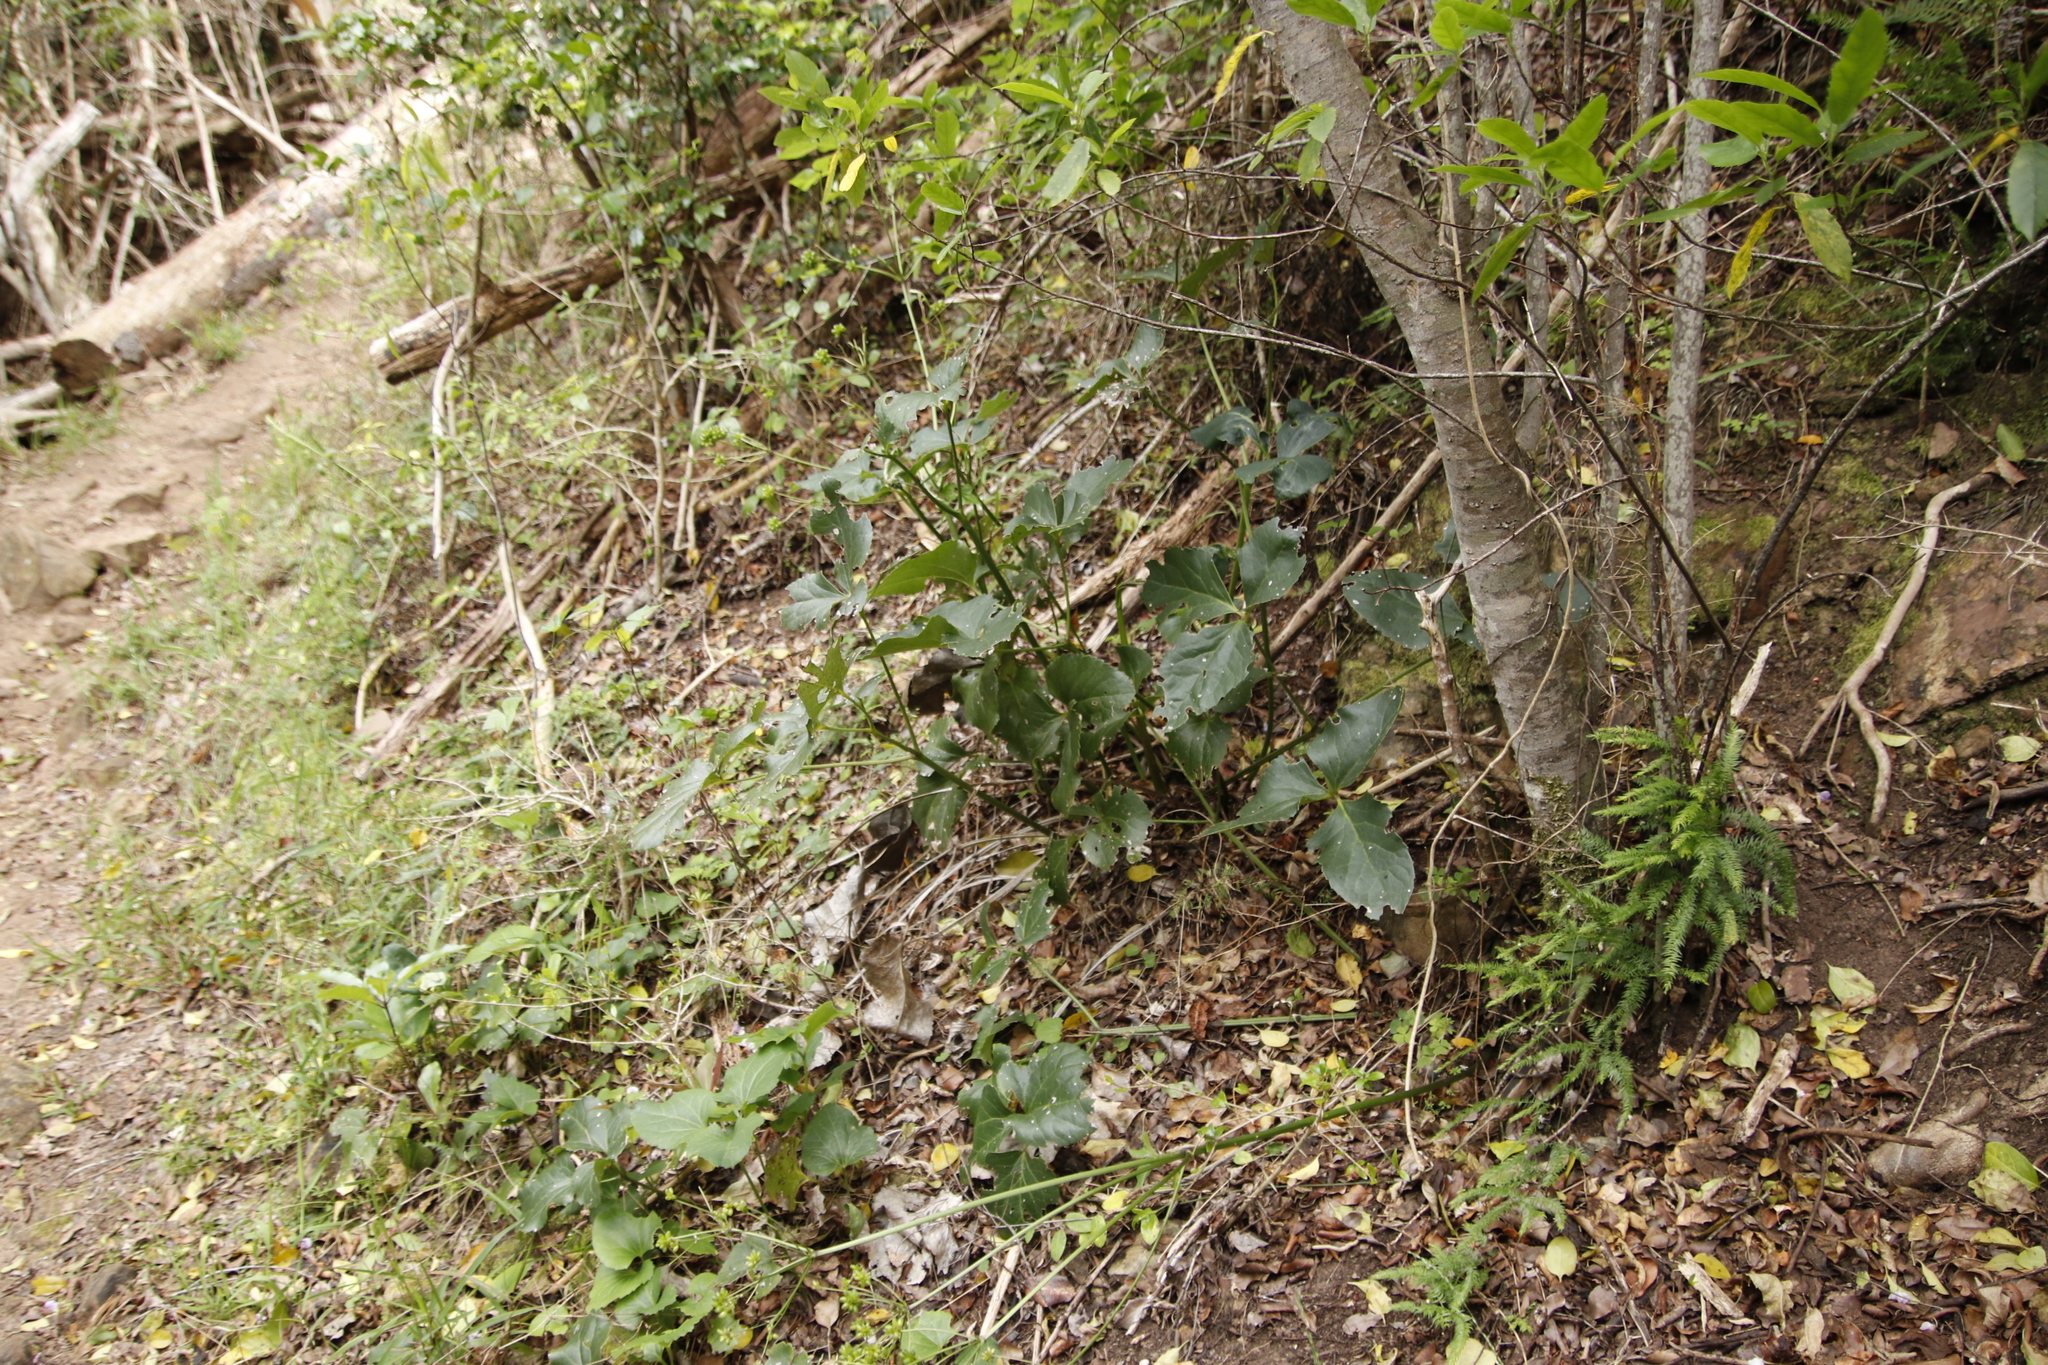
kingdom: Plantae
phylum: Tracheophyta
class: Magnoliopsida
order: Ranunculales
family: Ranunculaceae
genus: Knowltonia
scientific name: Knowltonia vesicatoria
